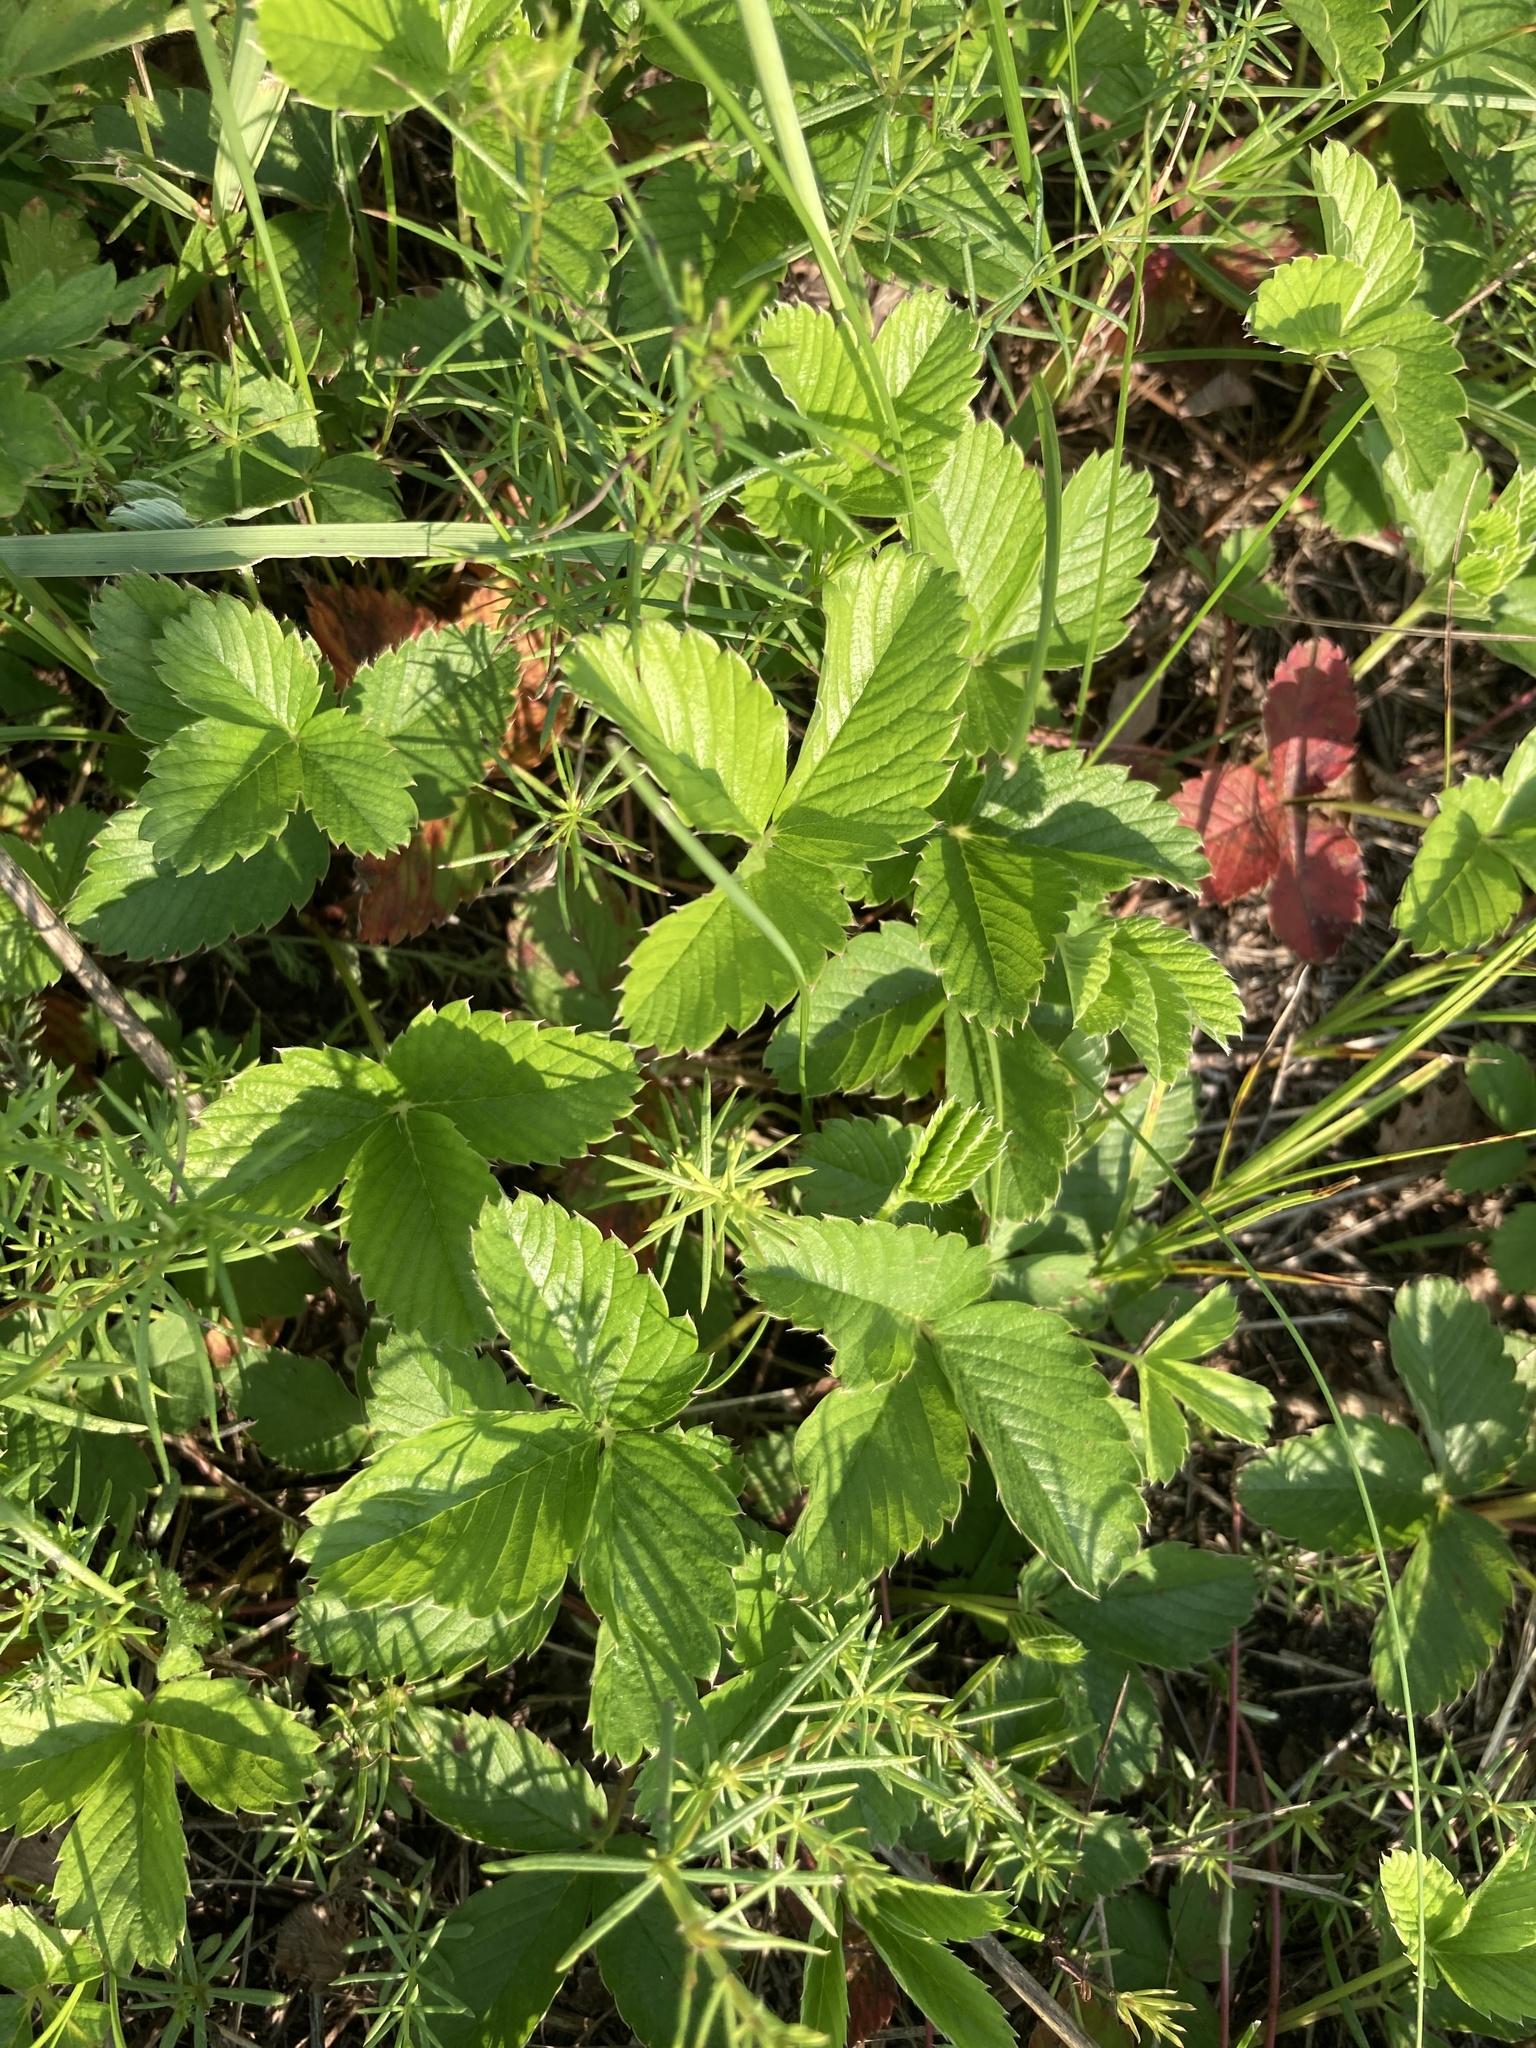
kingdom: Plantae
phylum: Tracheophyta
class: Magnoliopsida
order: Rosales
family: Rosaceae
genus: Fragaria
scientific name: Fragaria viridis
